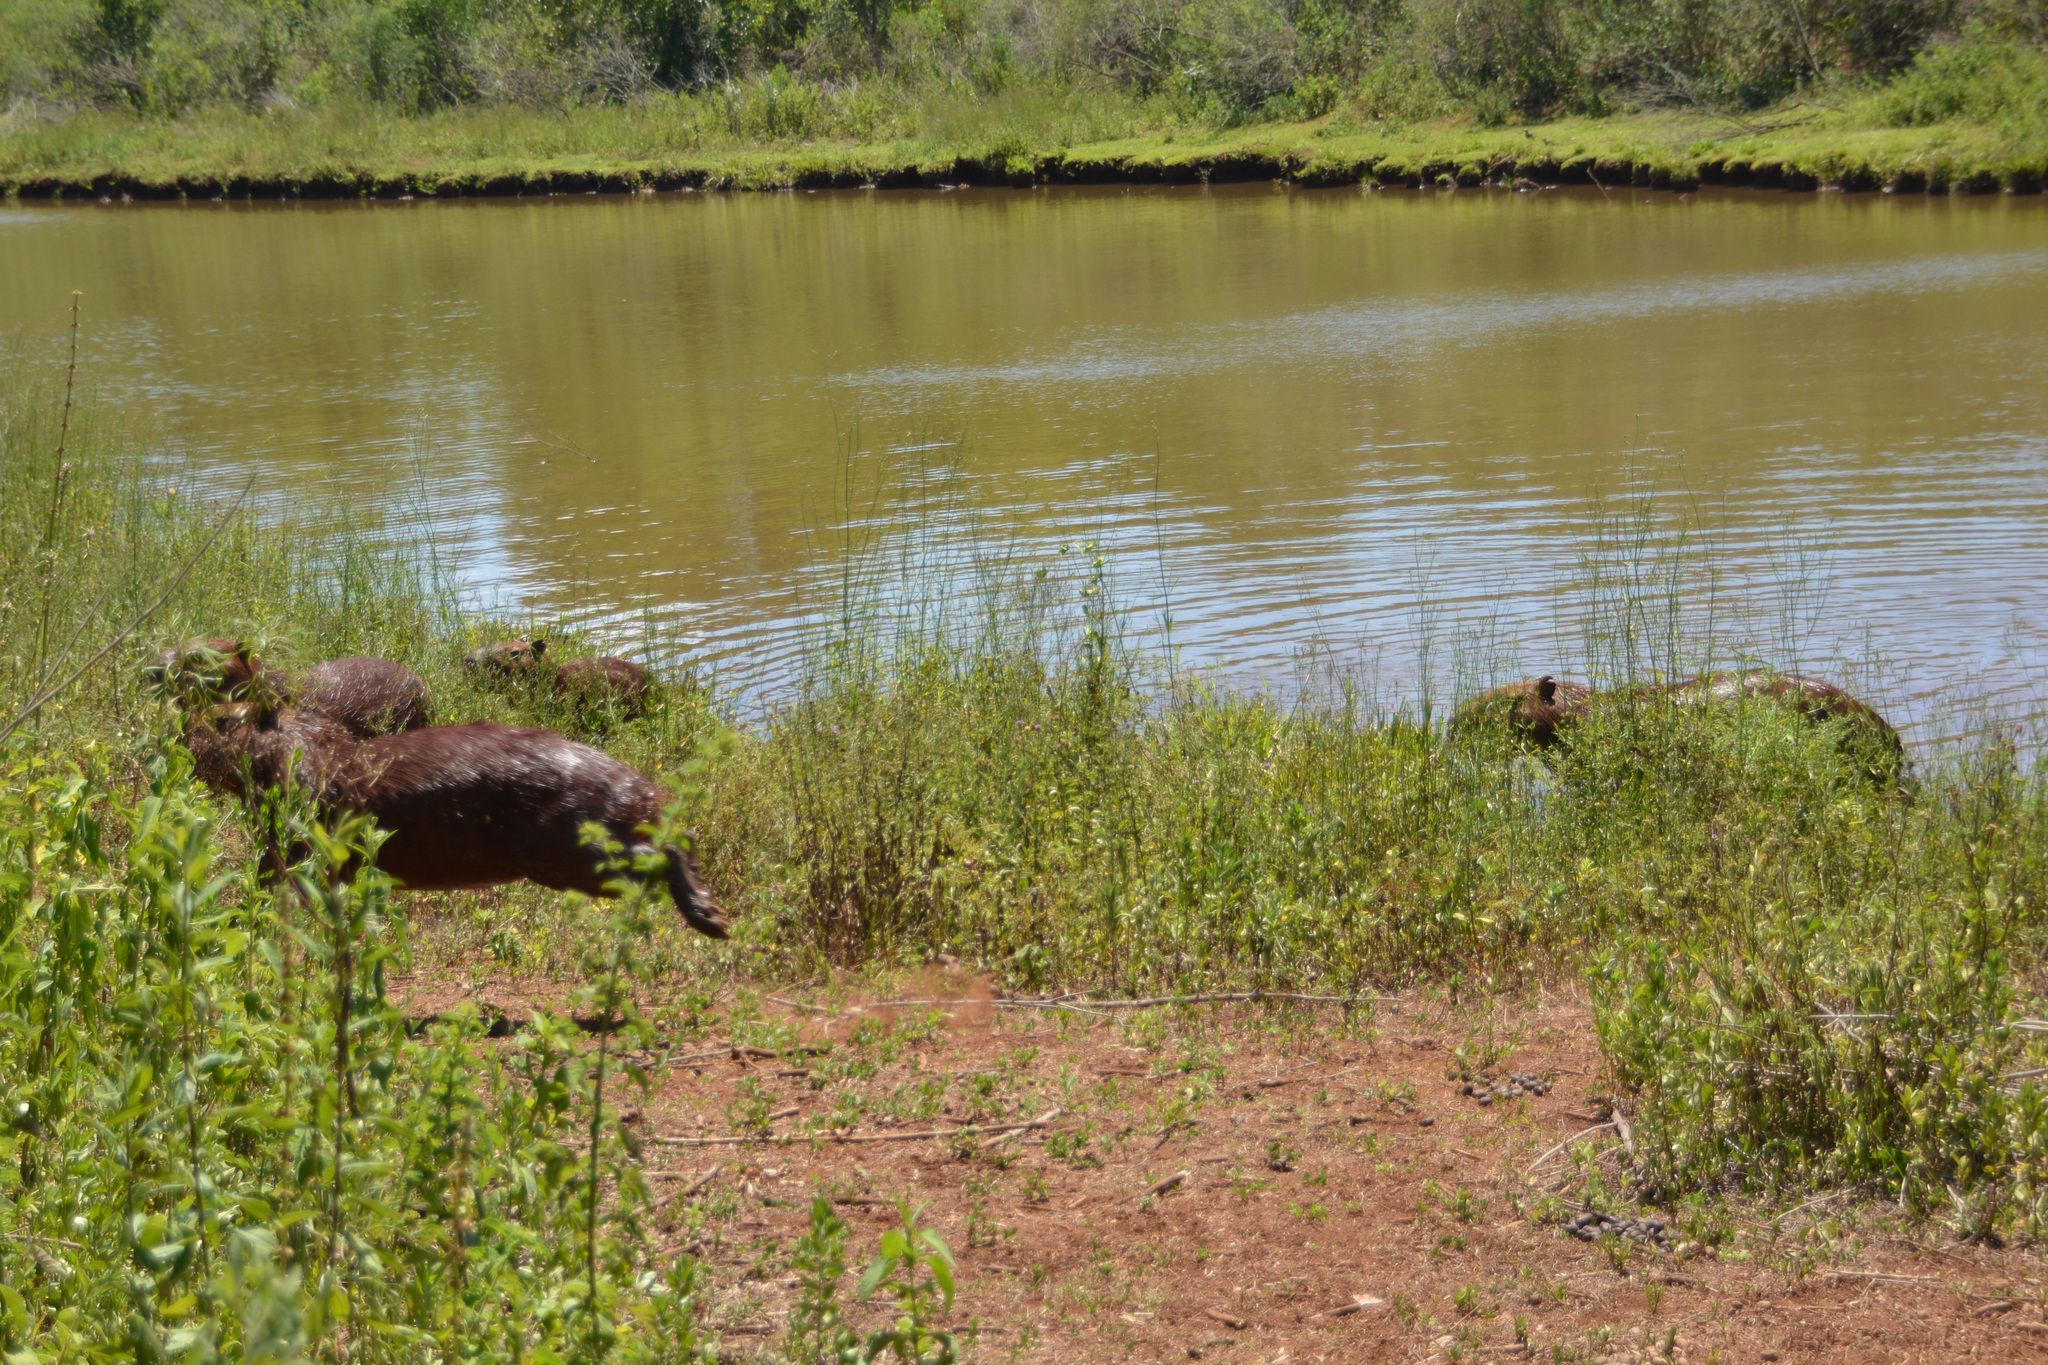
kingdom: Animalia
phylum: Chordata
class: Mammalia
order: Rodentia
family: Caviidae
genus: Hydrochoerus
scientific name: Hydrochoerus hydrochaeris
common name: Capybara
